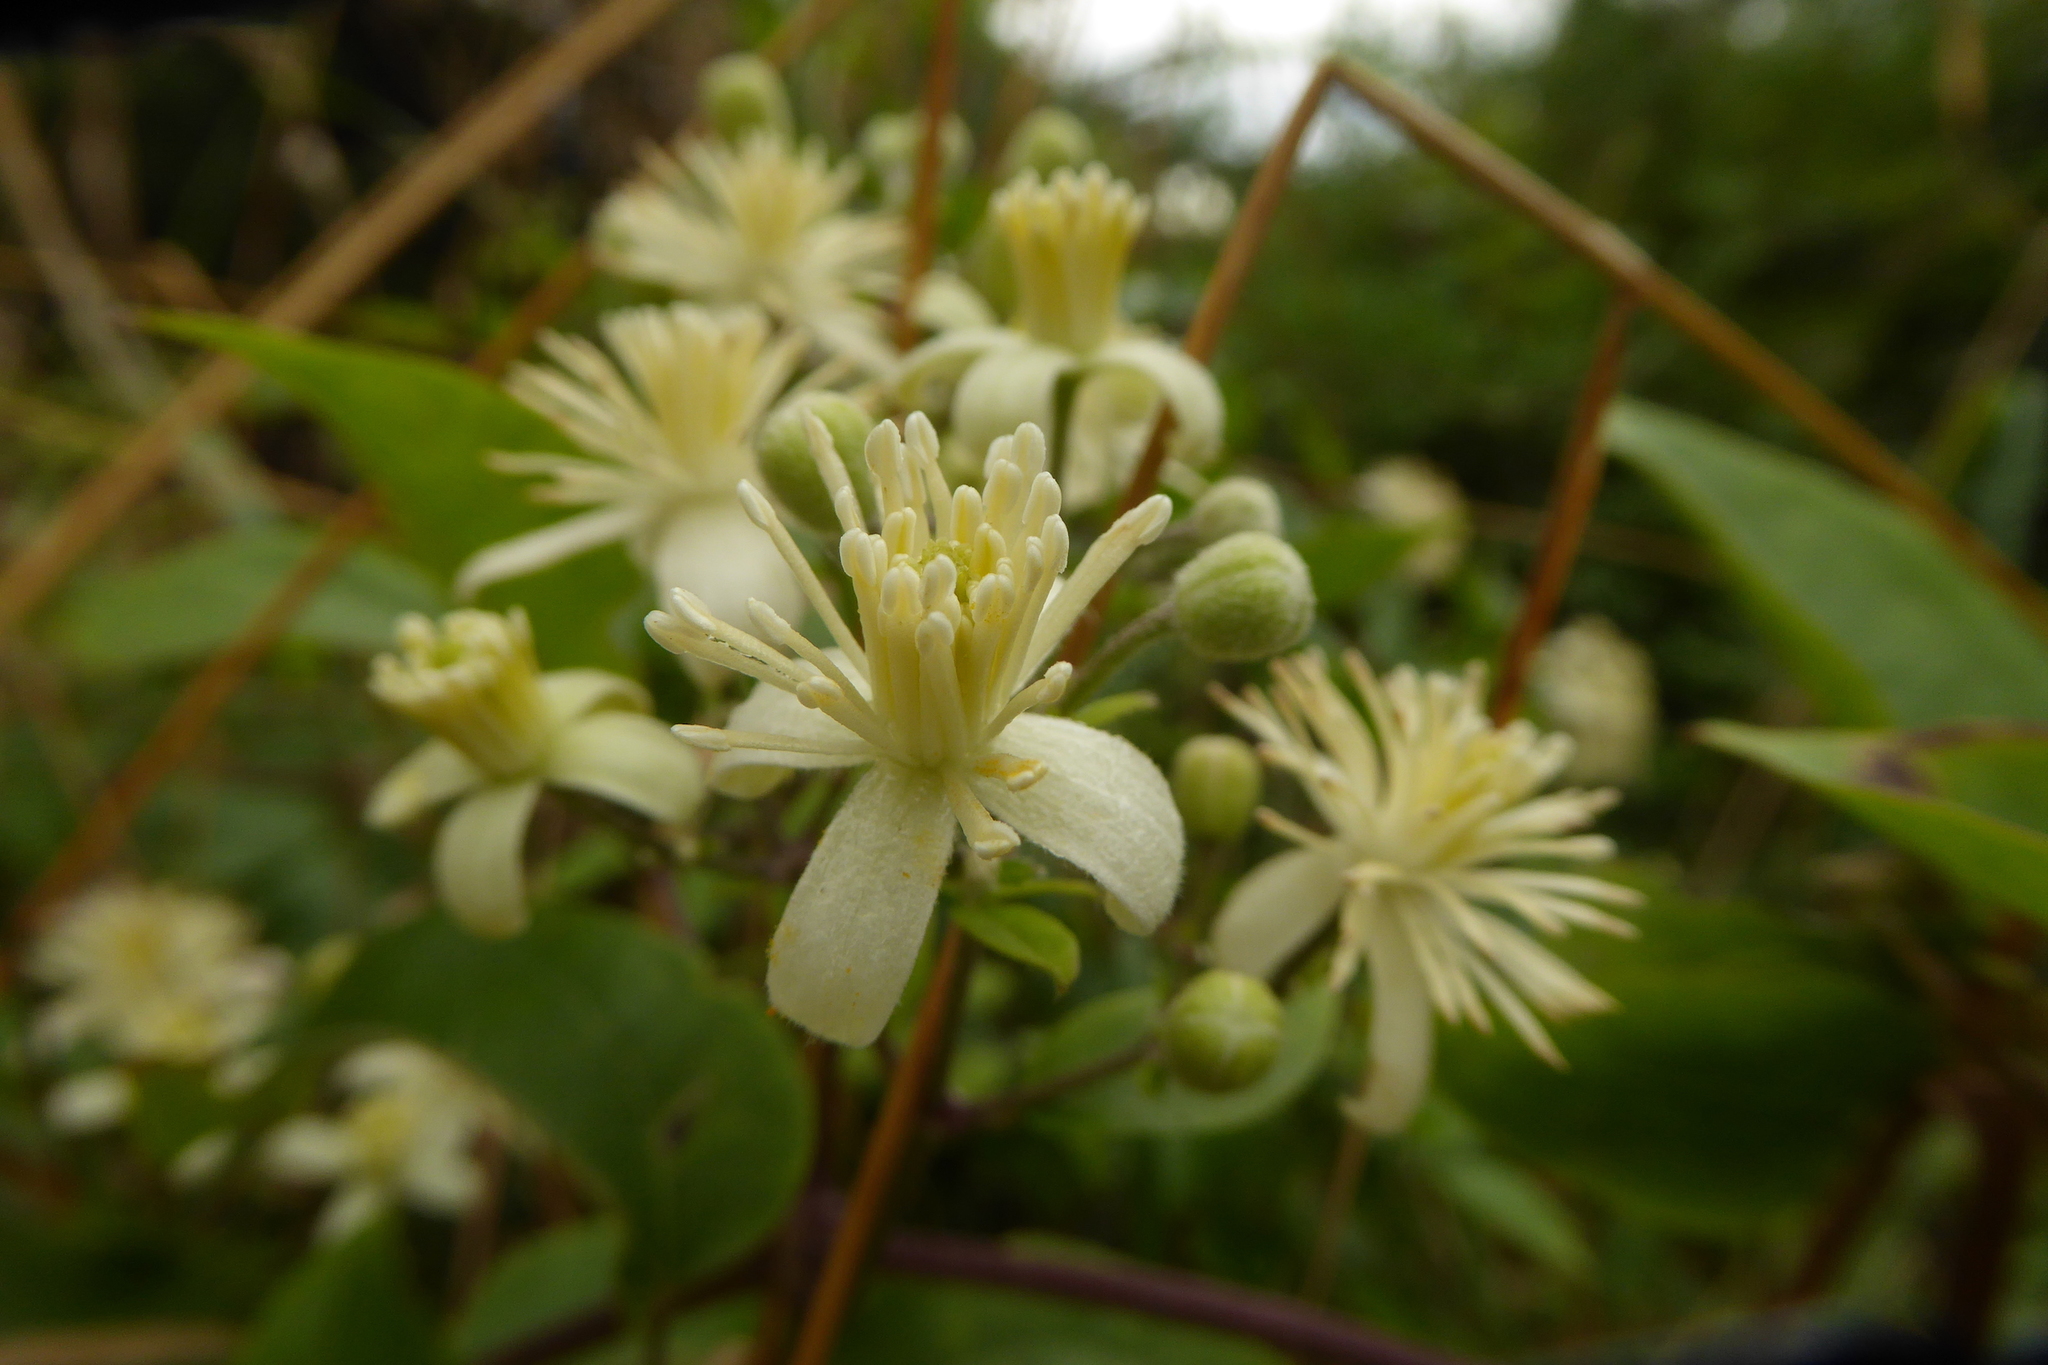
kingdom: Plantae
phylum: Tracheophyta
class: Magnoliopsida
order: Ranunculales
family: Ranunculaceae
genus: Clematis
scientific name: Clematis vitalba
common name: Evergreen clematis
